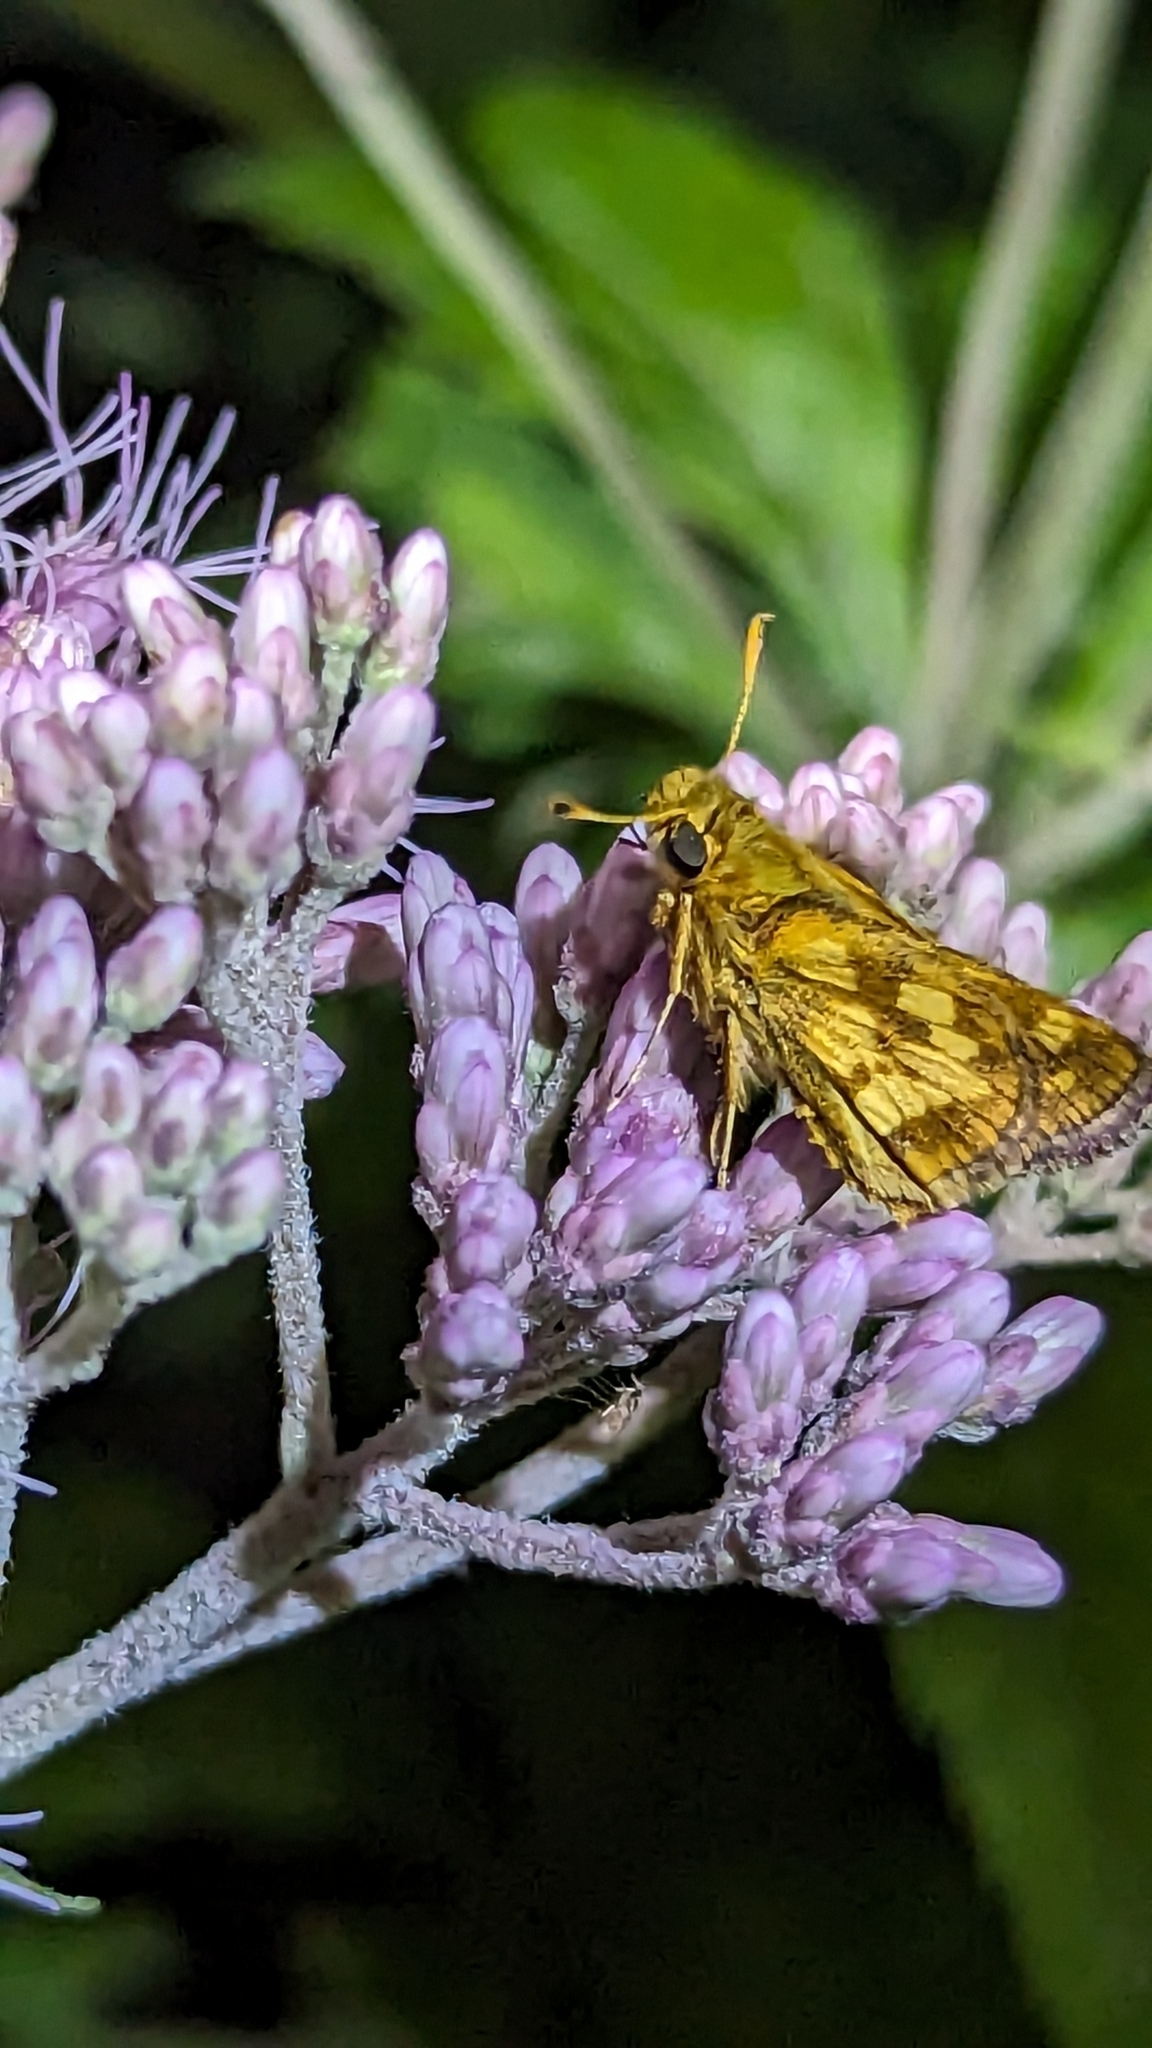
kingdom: Animalia
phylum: Arthropoda
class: Insecta
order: Lepidoptera
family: Hesperiidae
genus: Polites
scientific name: Polites coras
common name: Peck's skipper
